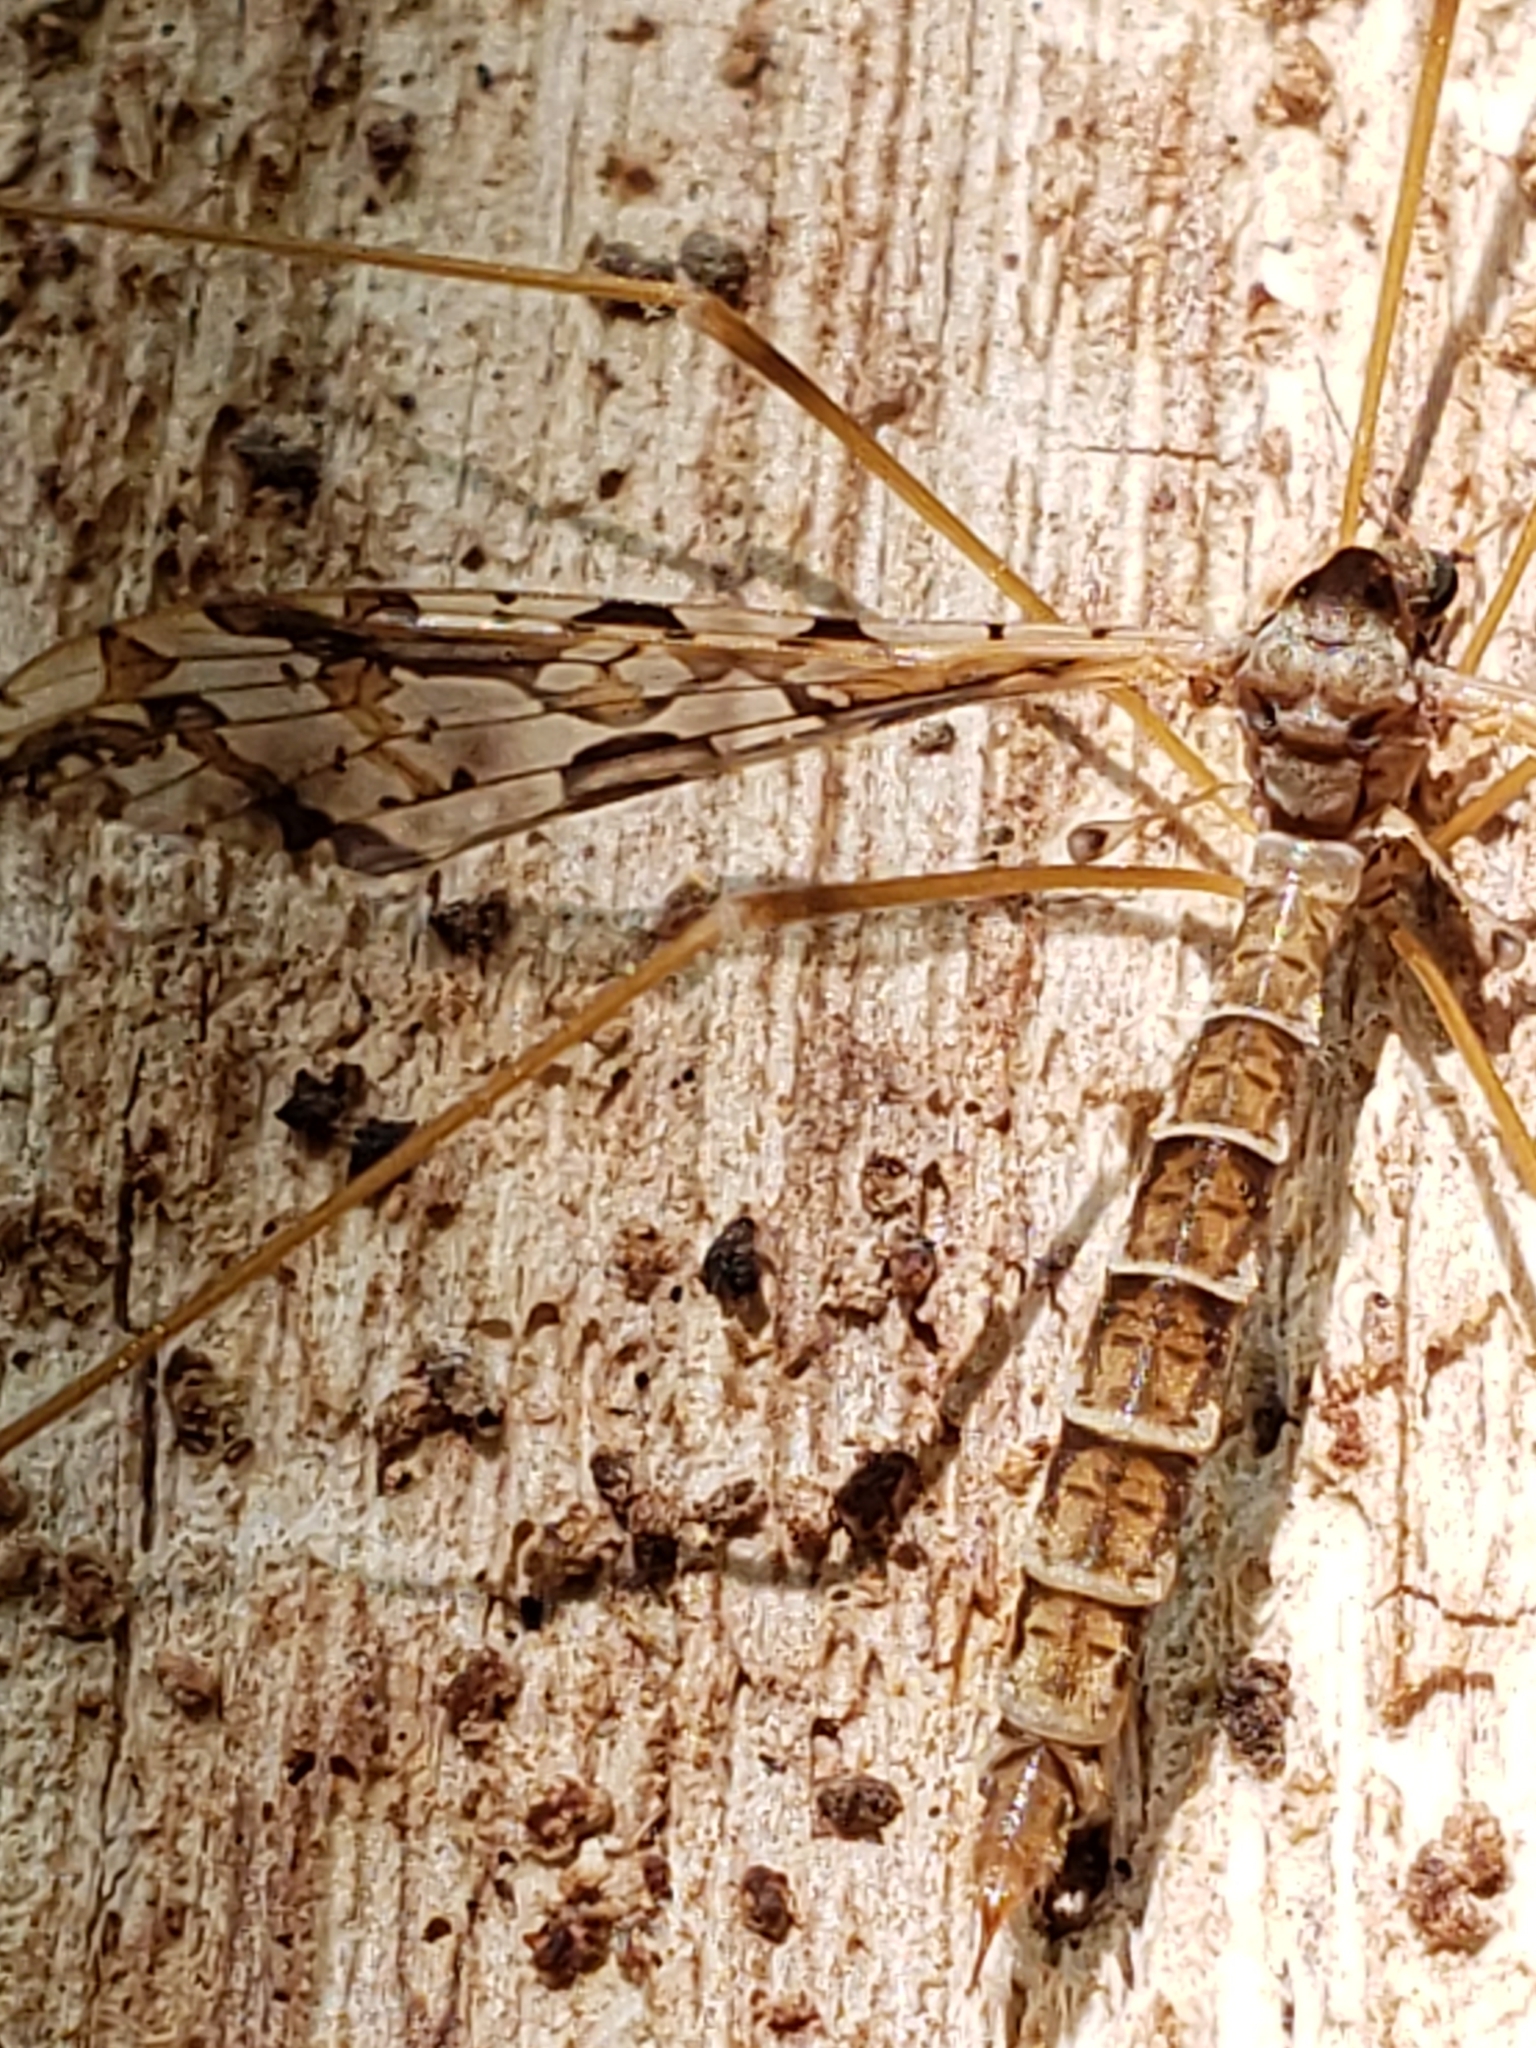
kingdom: Animalia
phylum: Arthropoda
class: Insecta
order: Diptera
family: Limoniidae
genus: Epiphragma
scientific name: Epiphragma solatrix
